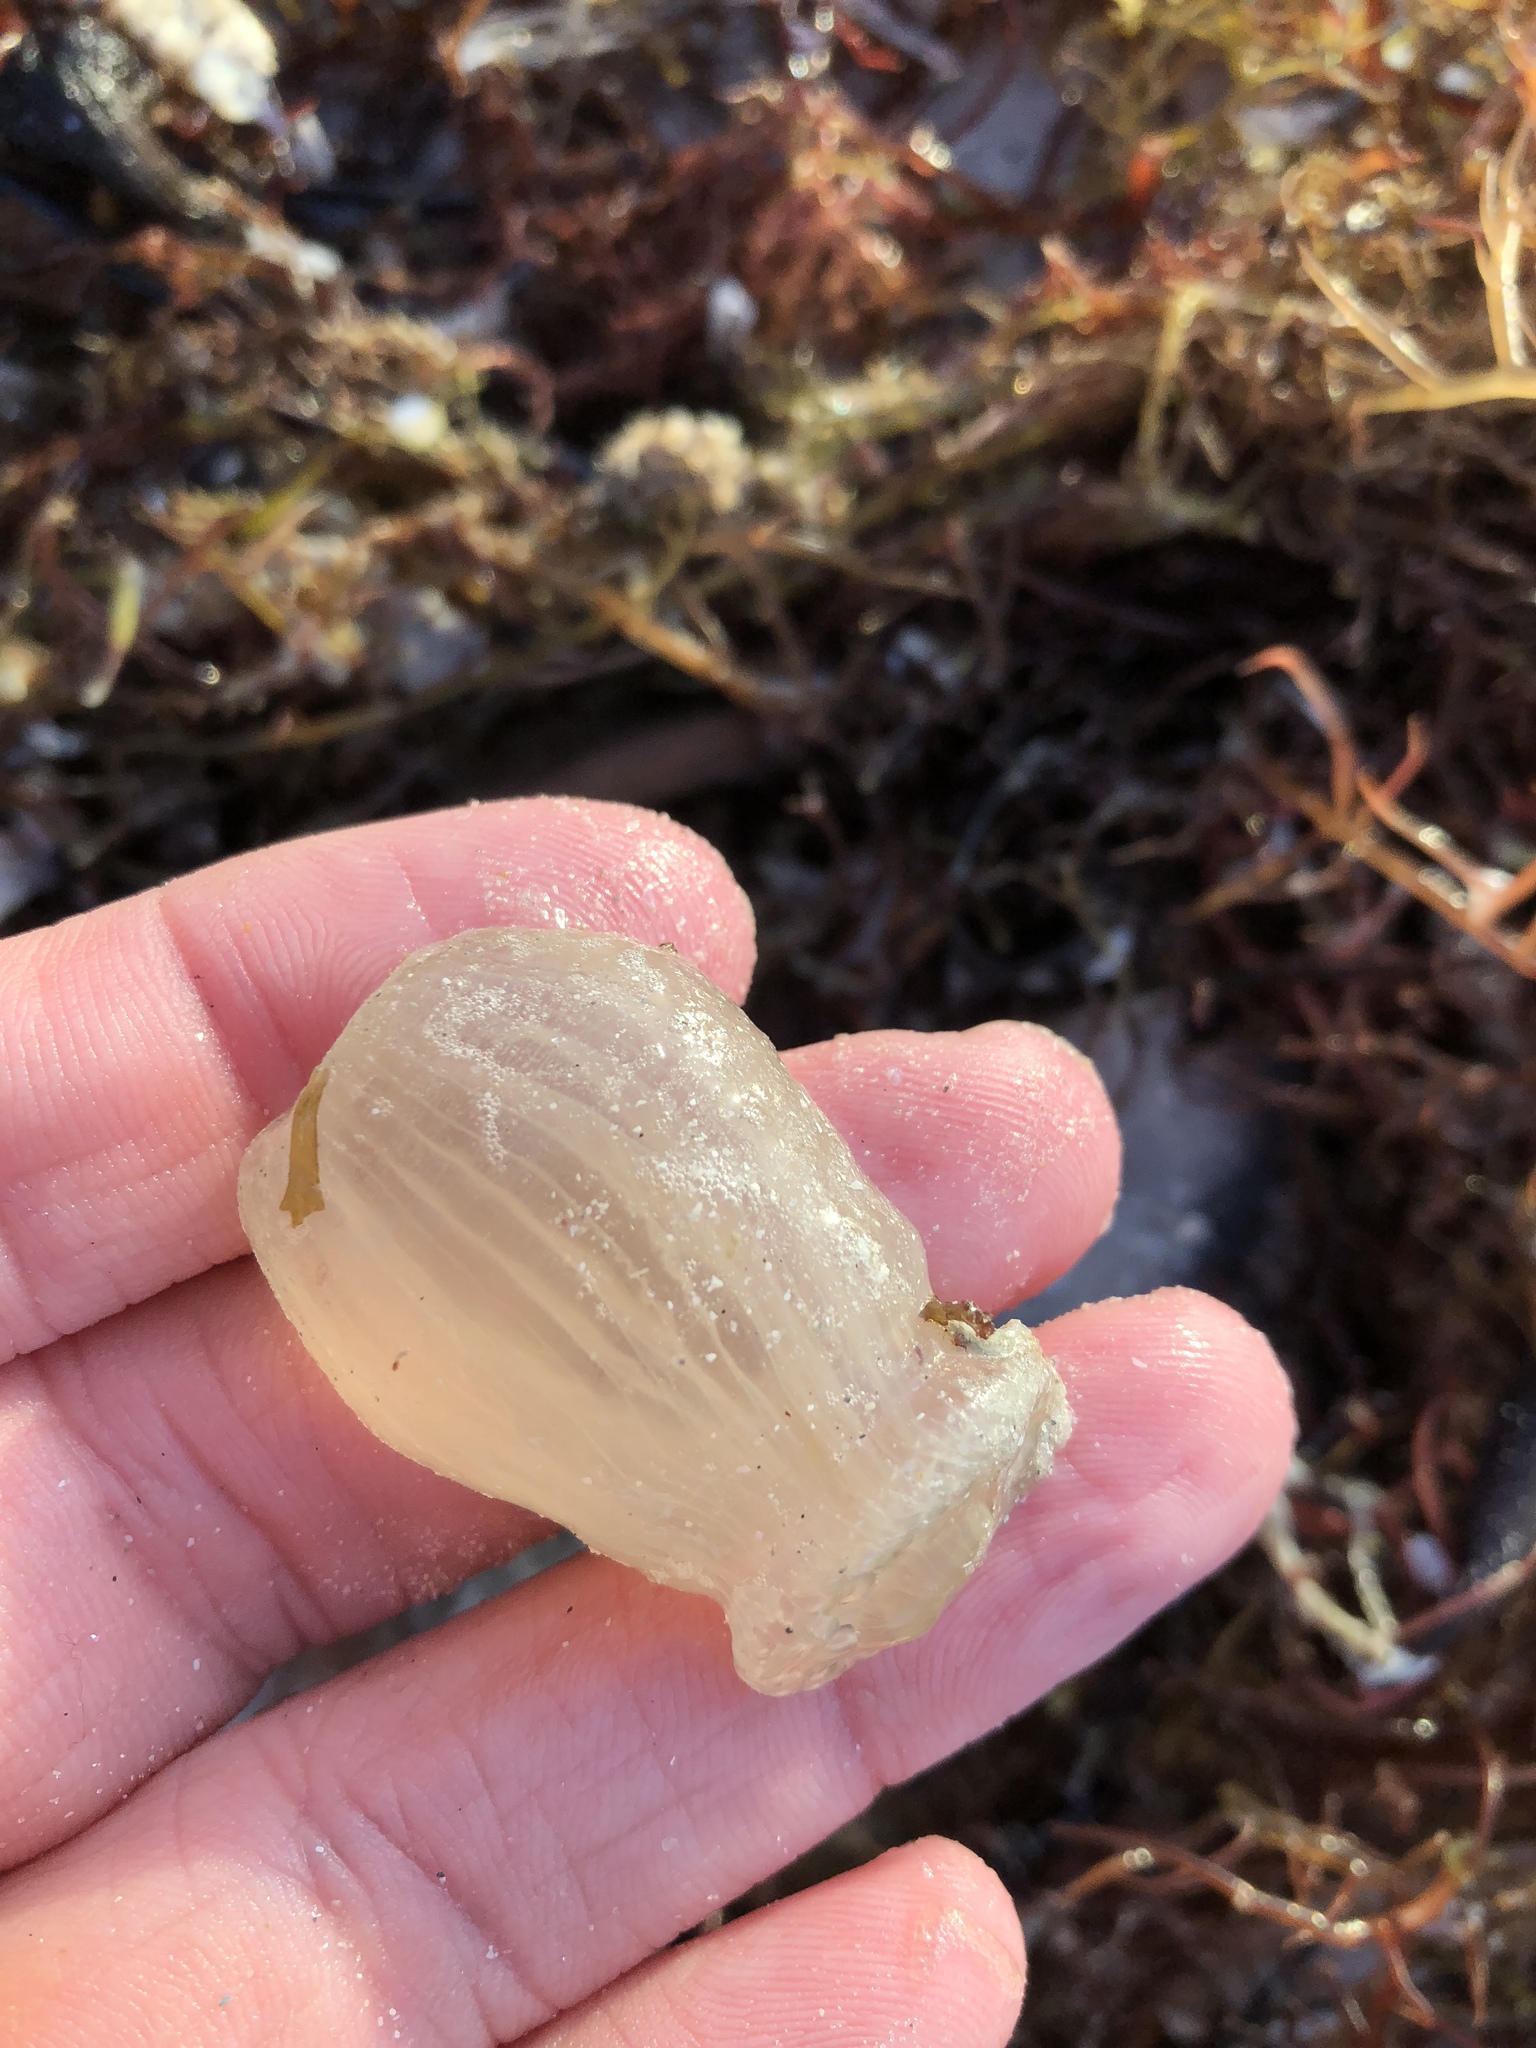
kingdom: Animalia
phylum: Cnidaria
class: Anthozoa
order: Actiniaria
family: Actinostolidae
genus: Paranthus
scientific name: Paranthus rapiformis
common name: Sea onion
